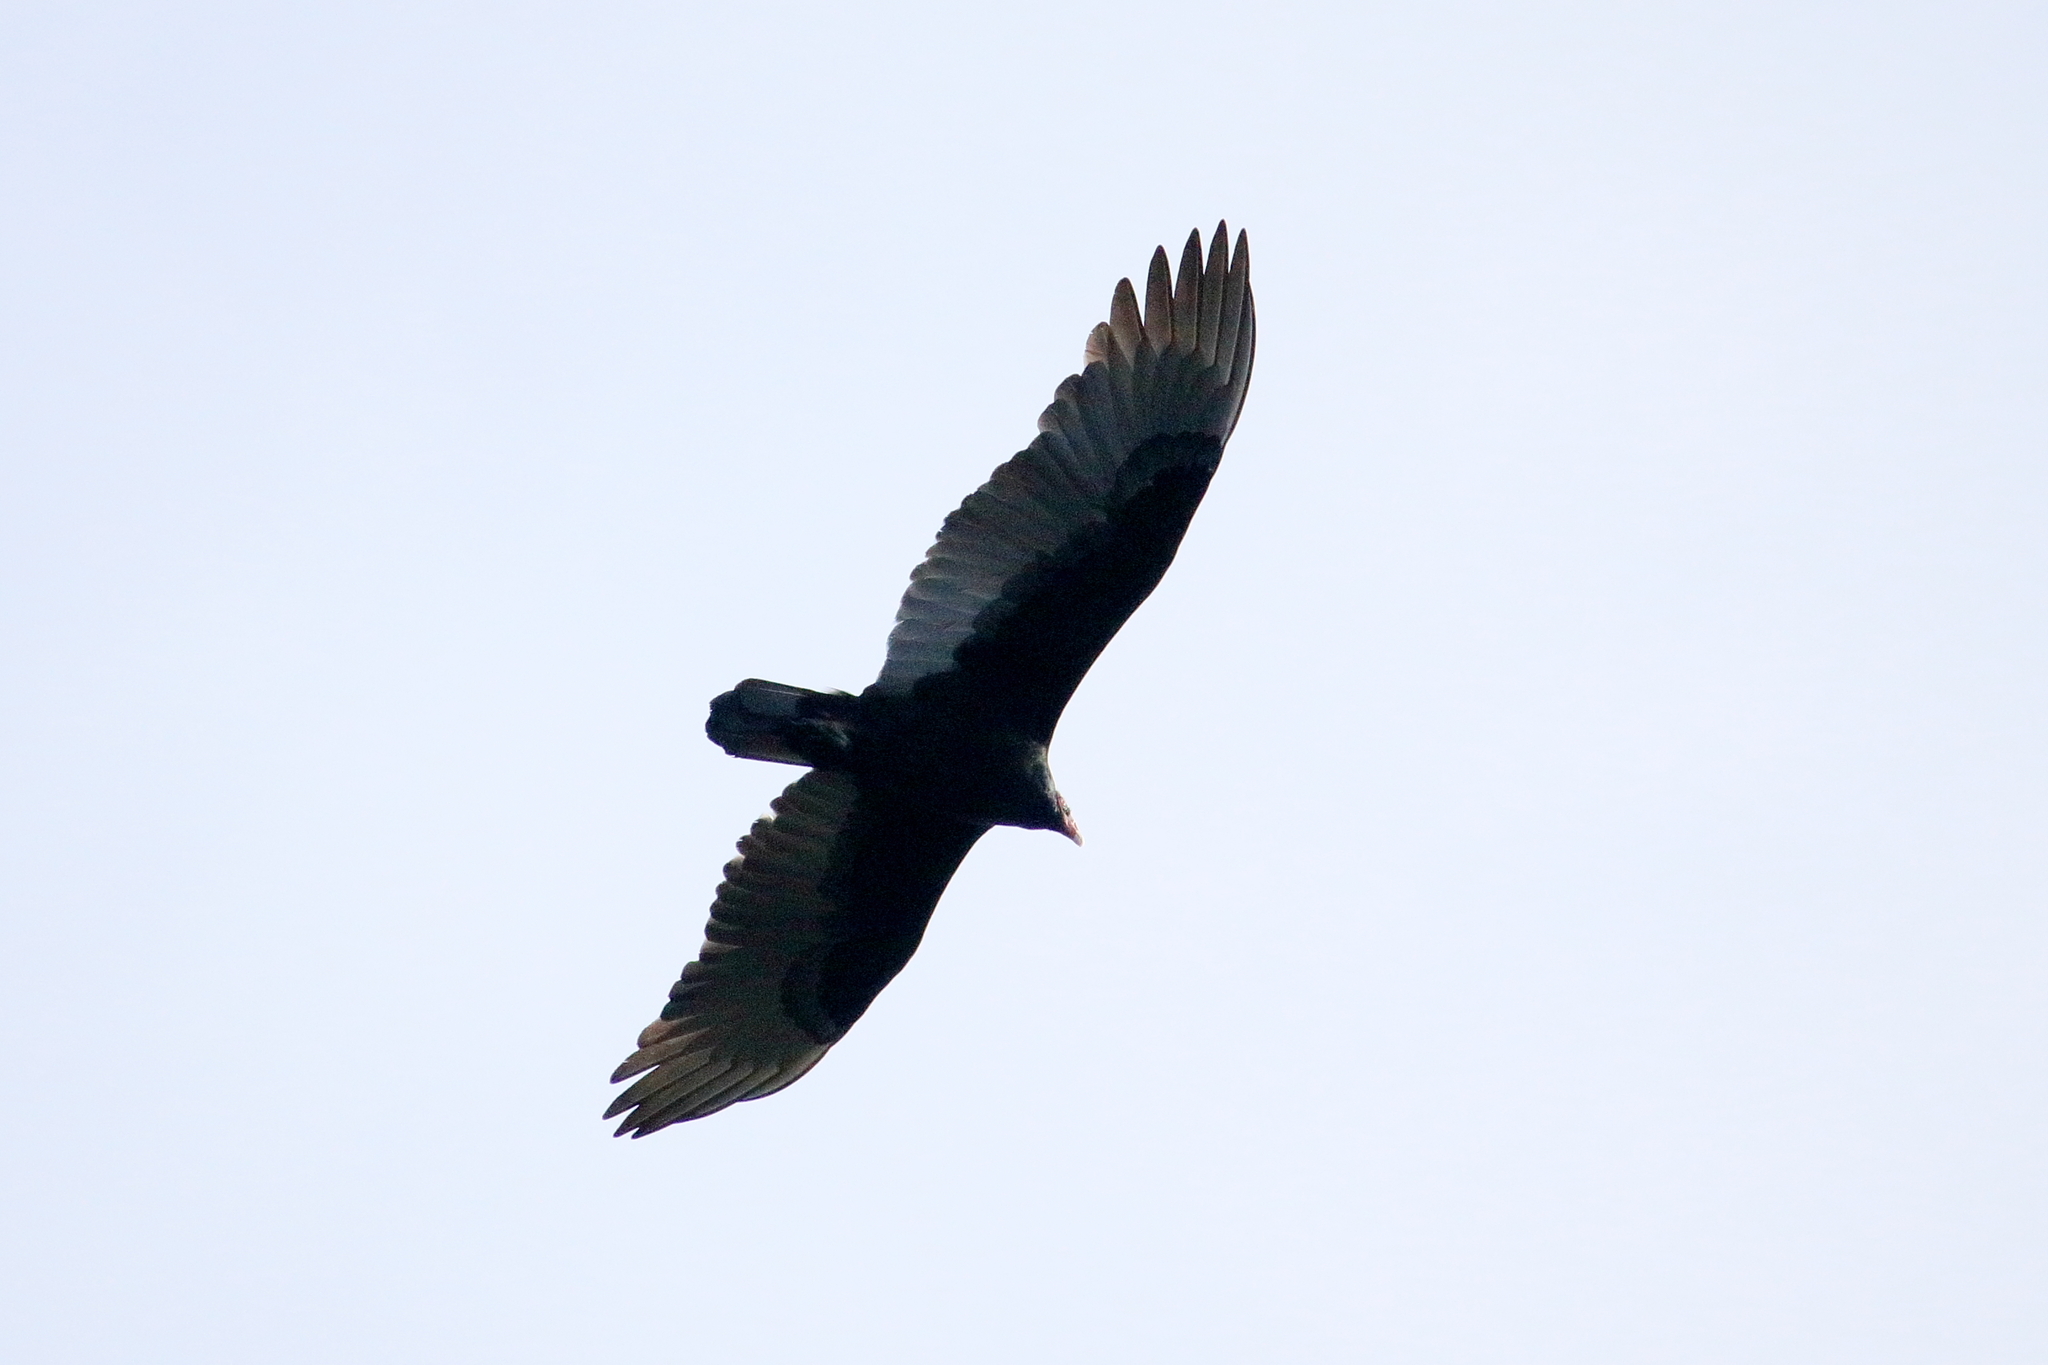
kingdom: Animalia
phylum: Chordata
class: Aves
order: Accipitriformes
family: Cathartidae
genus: Cathartes
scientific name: Cathartes aura
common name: Turkey vulture
